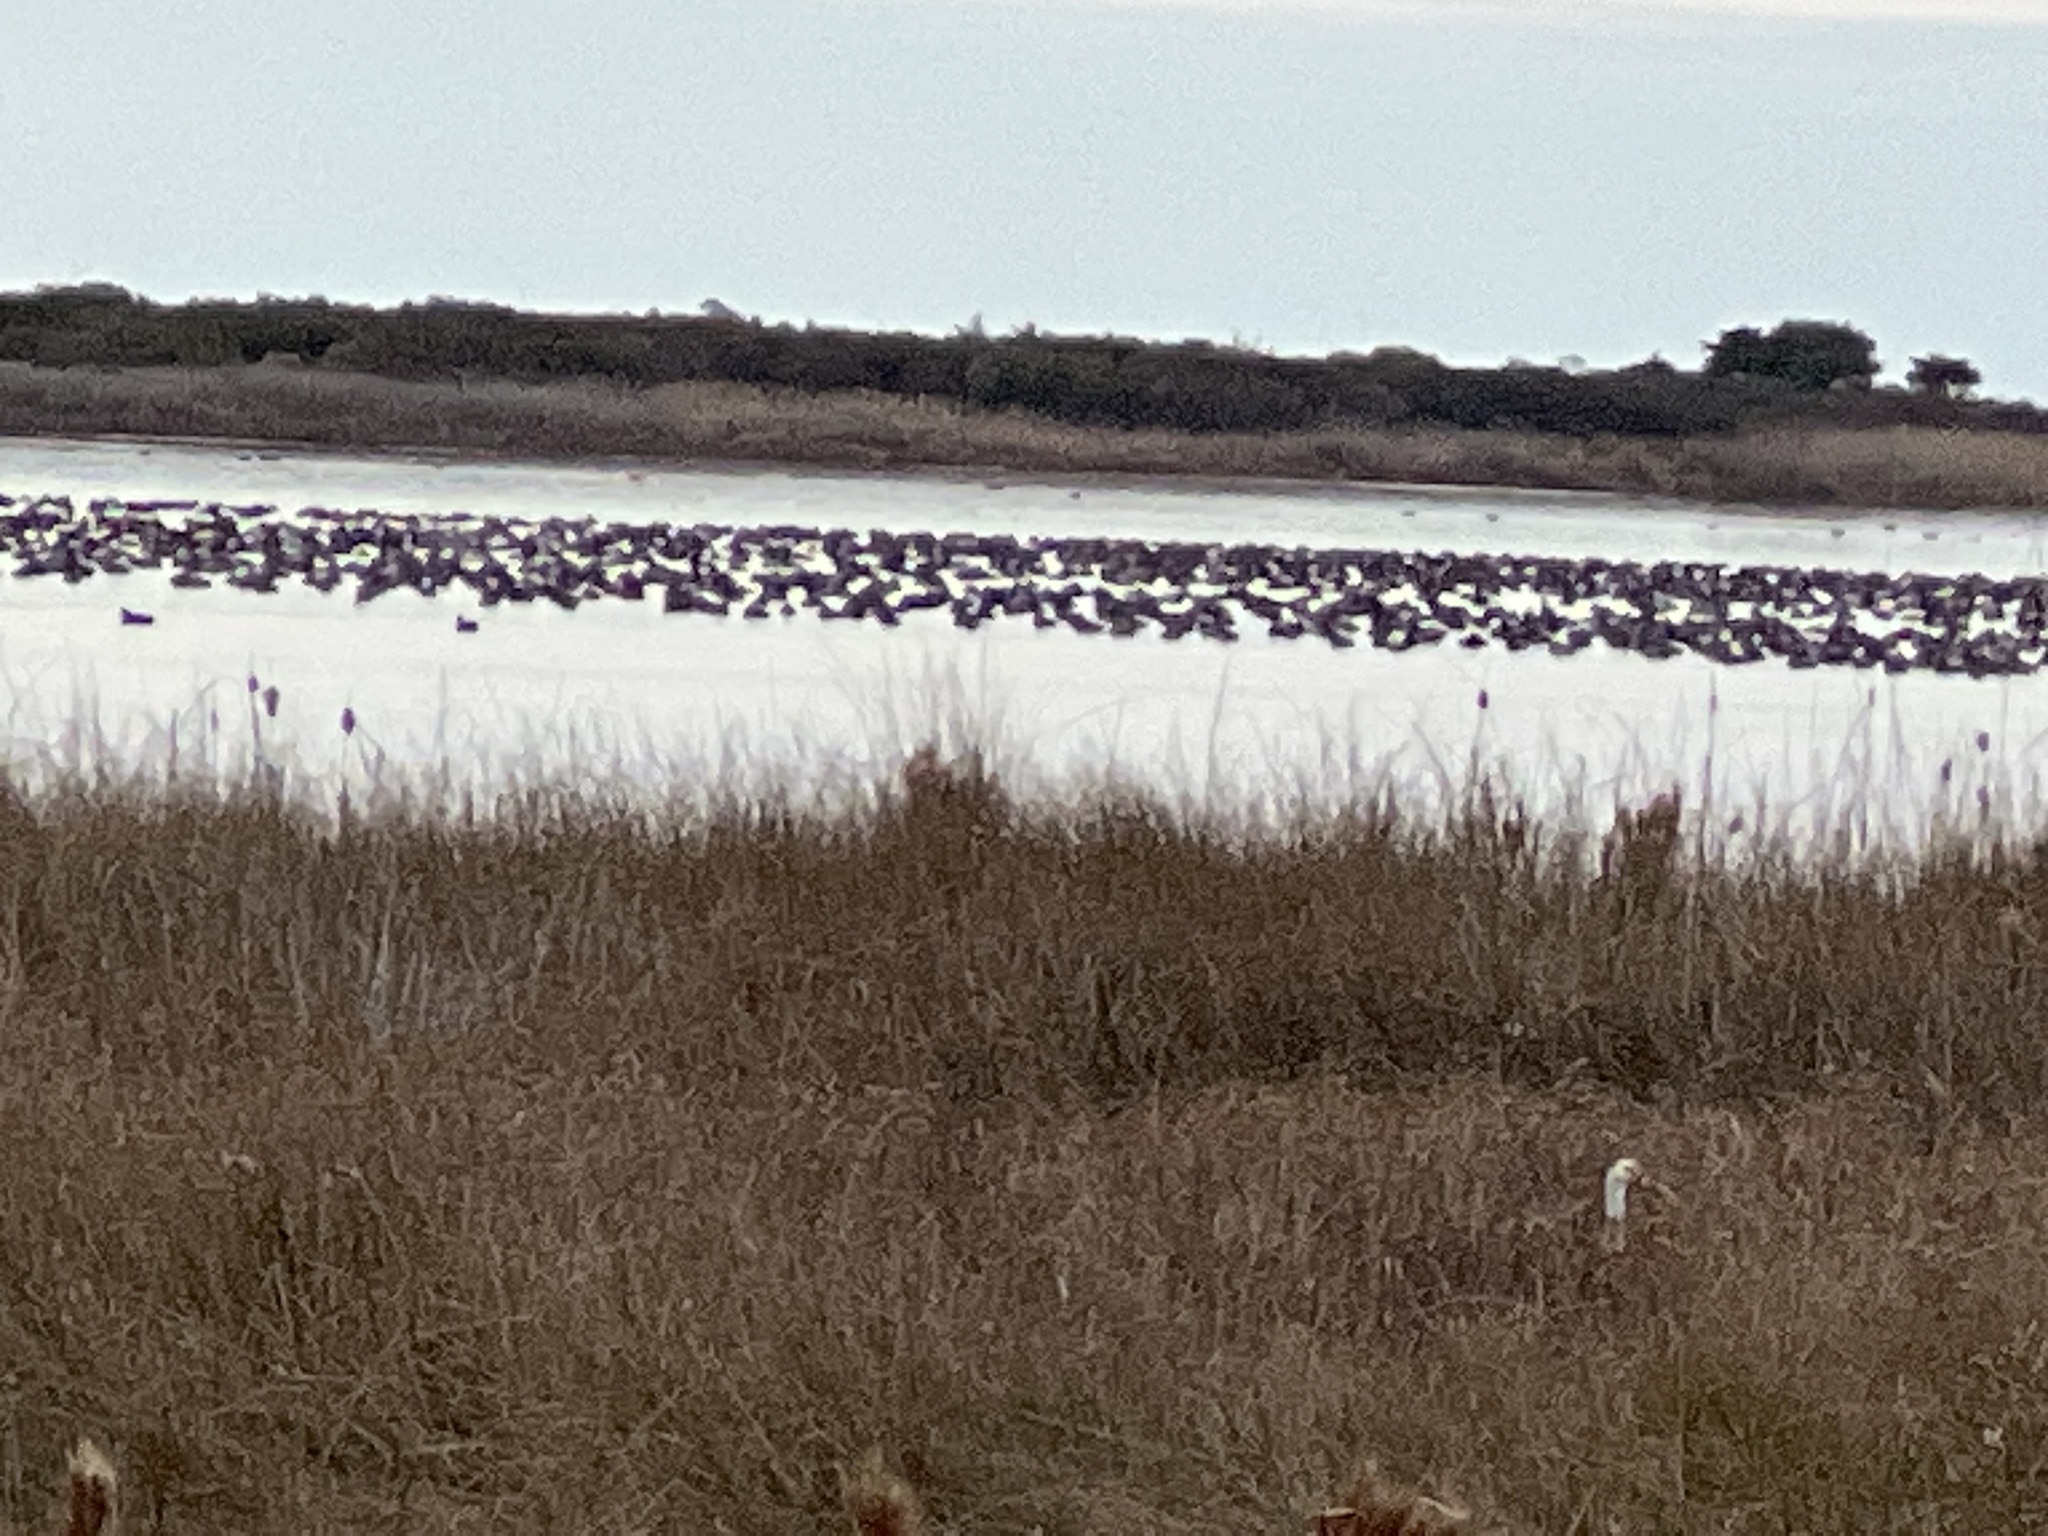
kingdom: Animalia
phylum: Chordata
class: Aves
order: Pelecaniformes
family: Threskiornithidae
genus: Eudocimus
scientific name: Eudocimus albus
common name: White ibis
